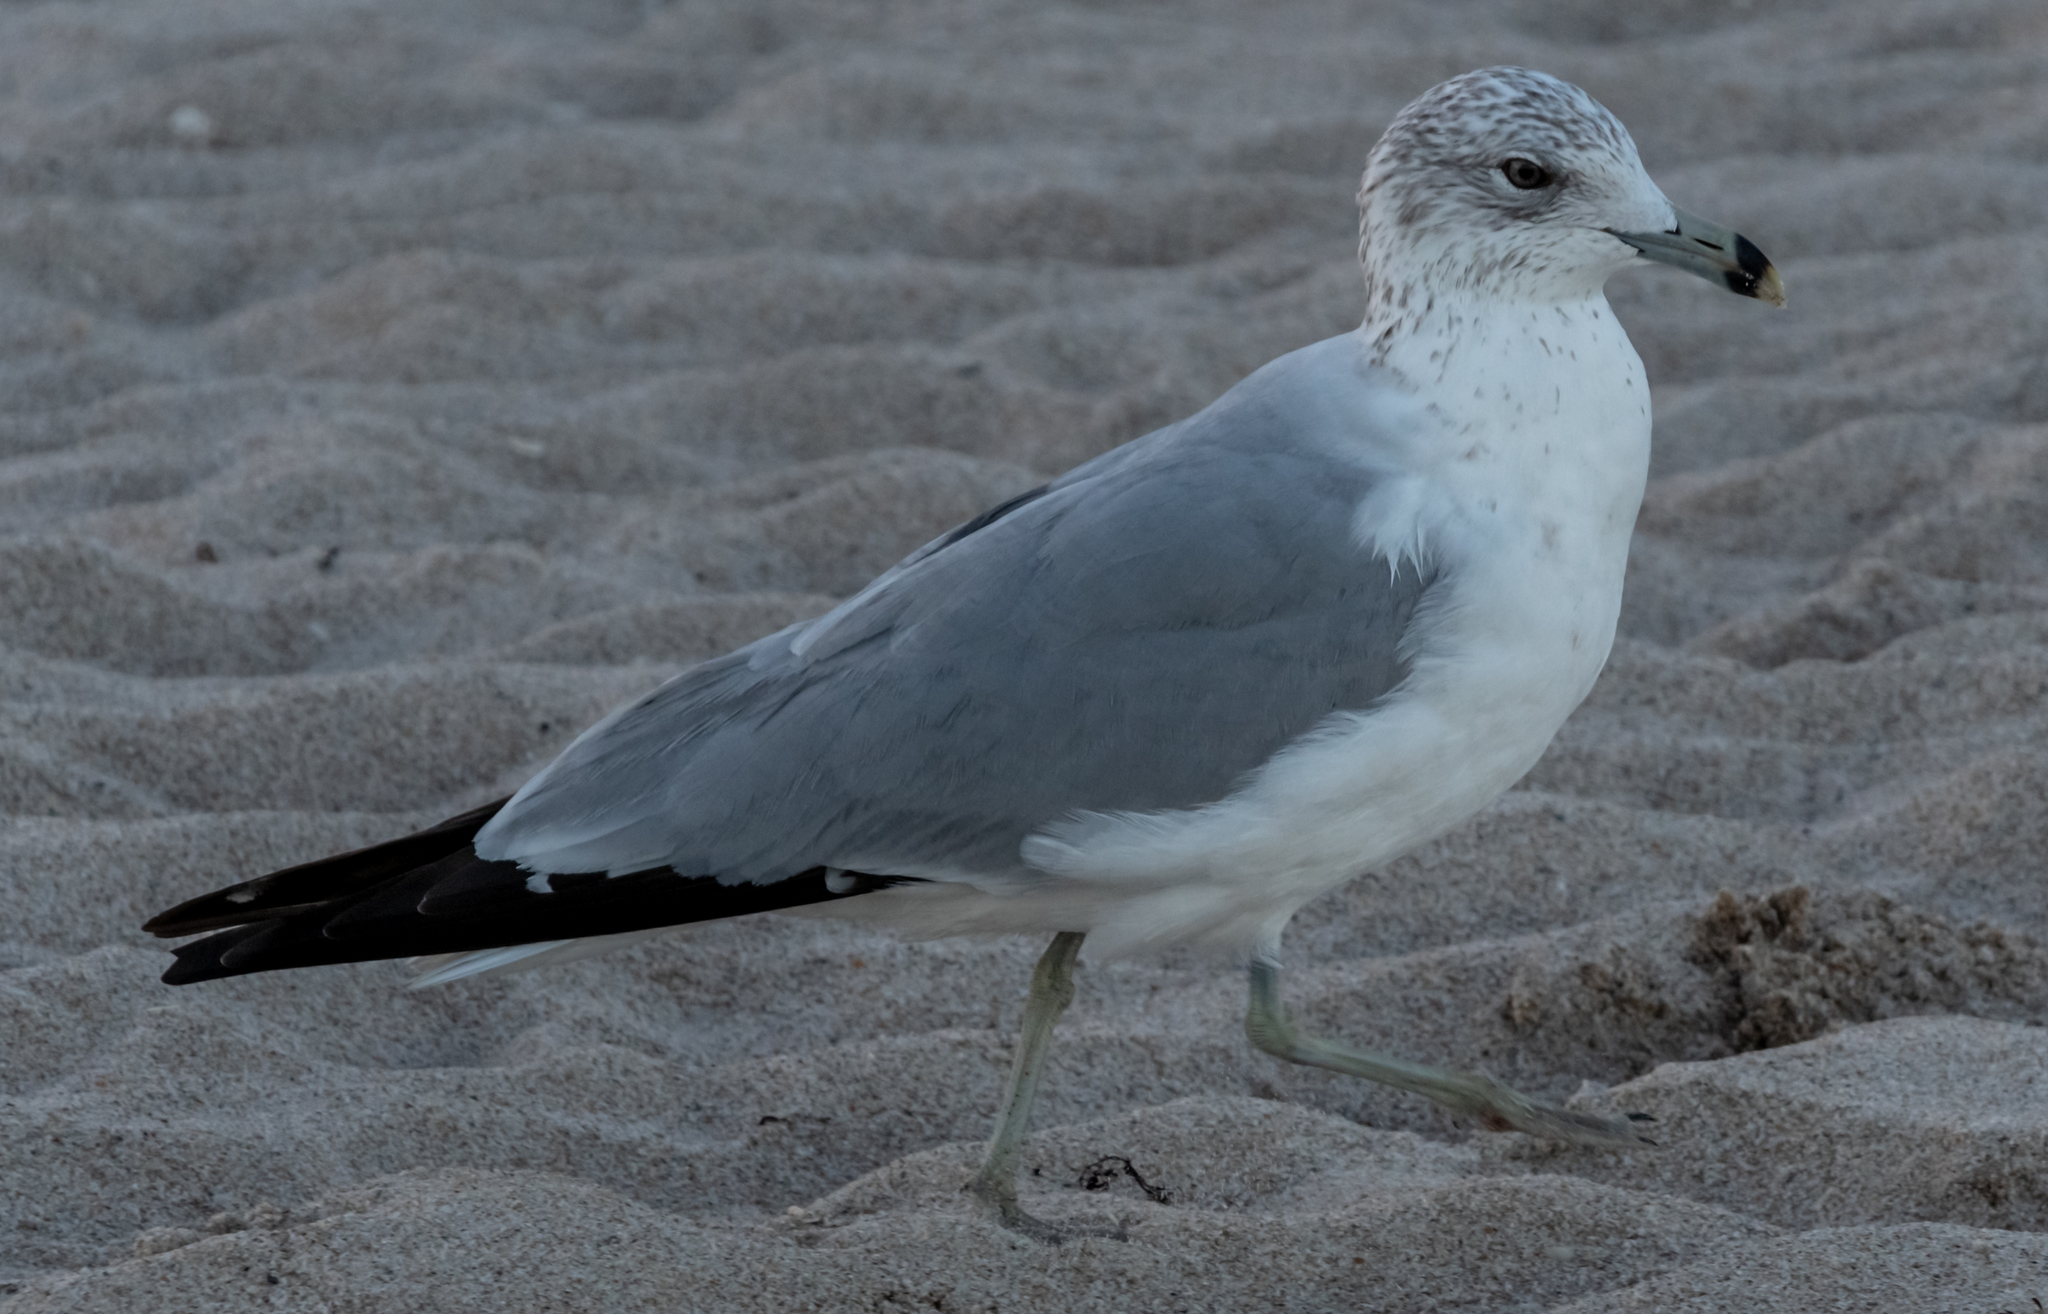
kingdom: Animalia
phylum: Chordata
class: Aves
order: Charadriiformes
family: Laridae
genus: Larus
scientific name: Larus delawarensis
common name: Ring-billed gull
